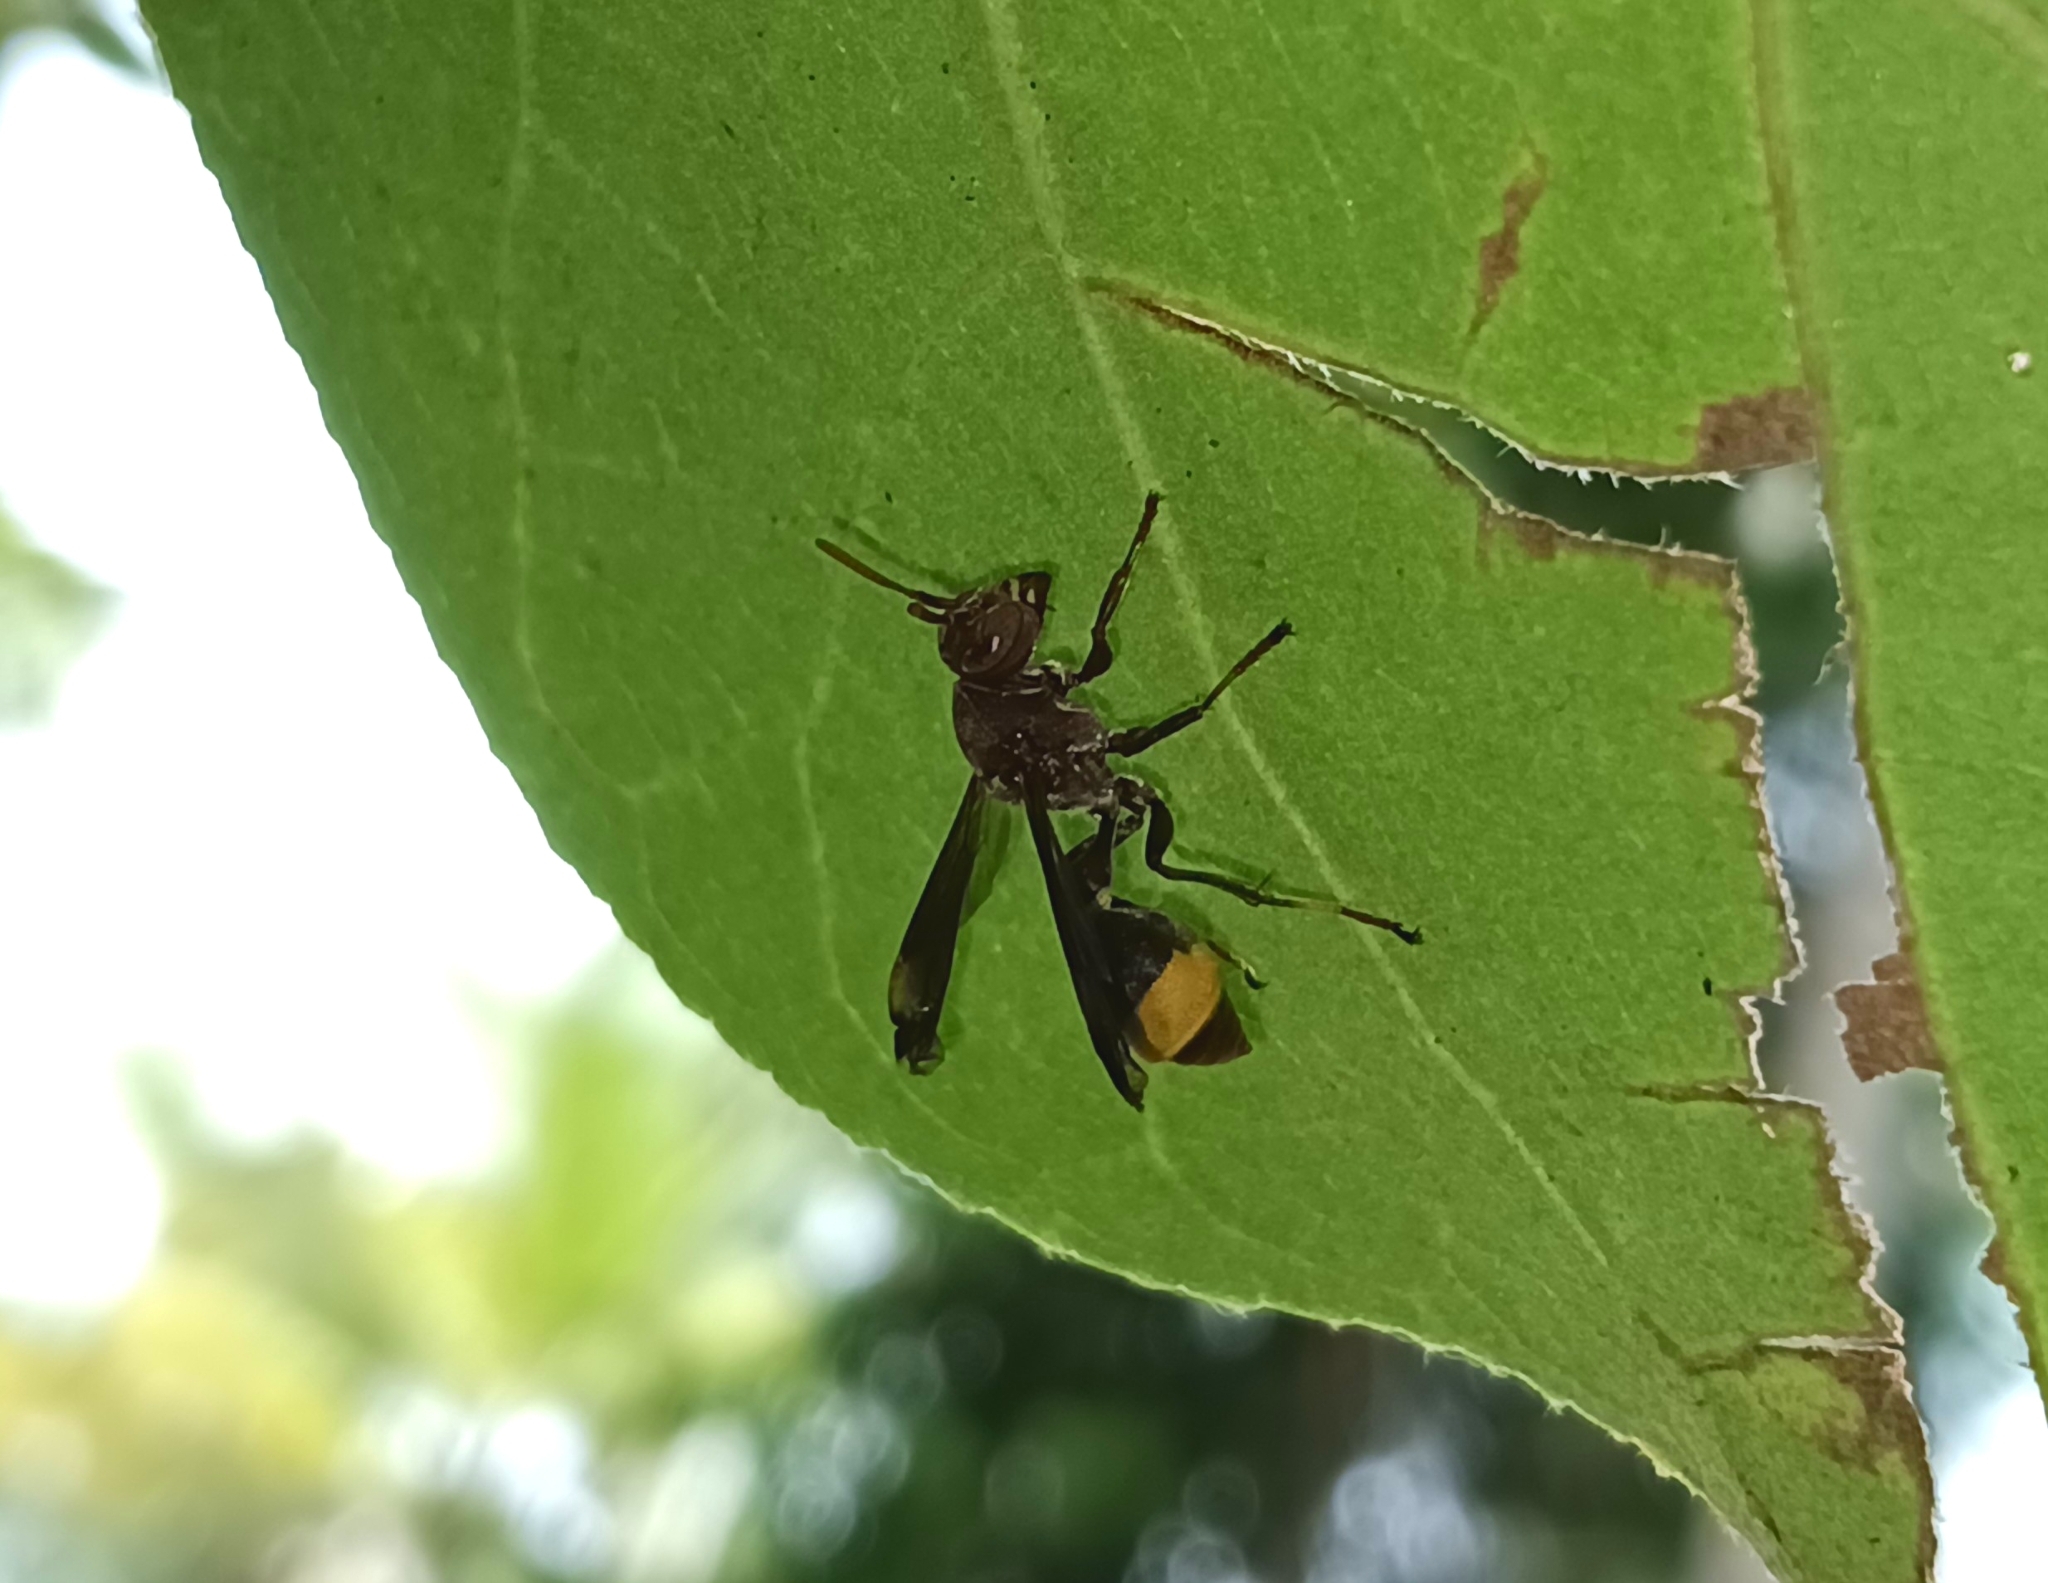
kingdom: Animalia
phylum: Arthropoda
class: Insecta
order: Hymenoptera
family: Vespidae
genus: Ropalidia
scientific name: Ropalidia
